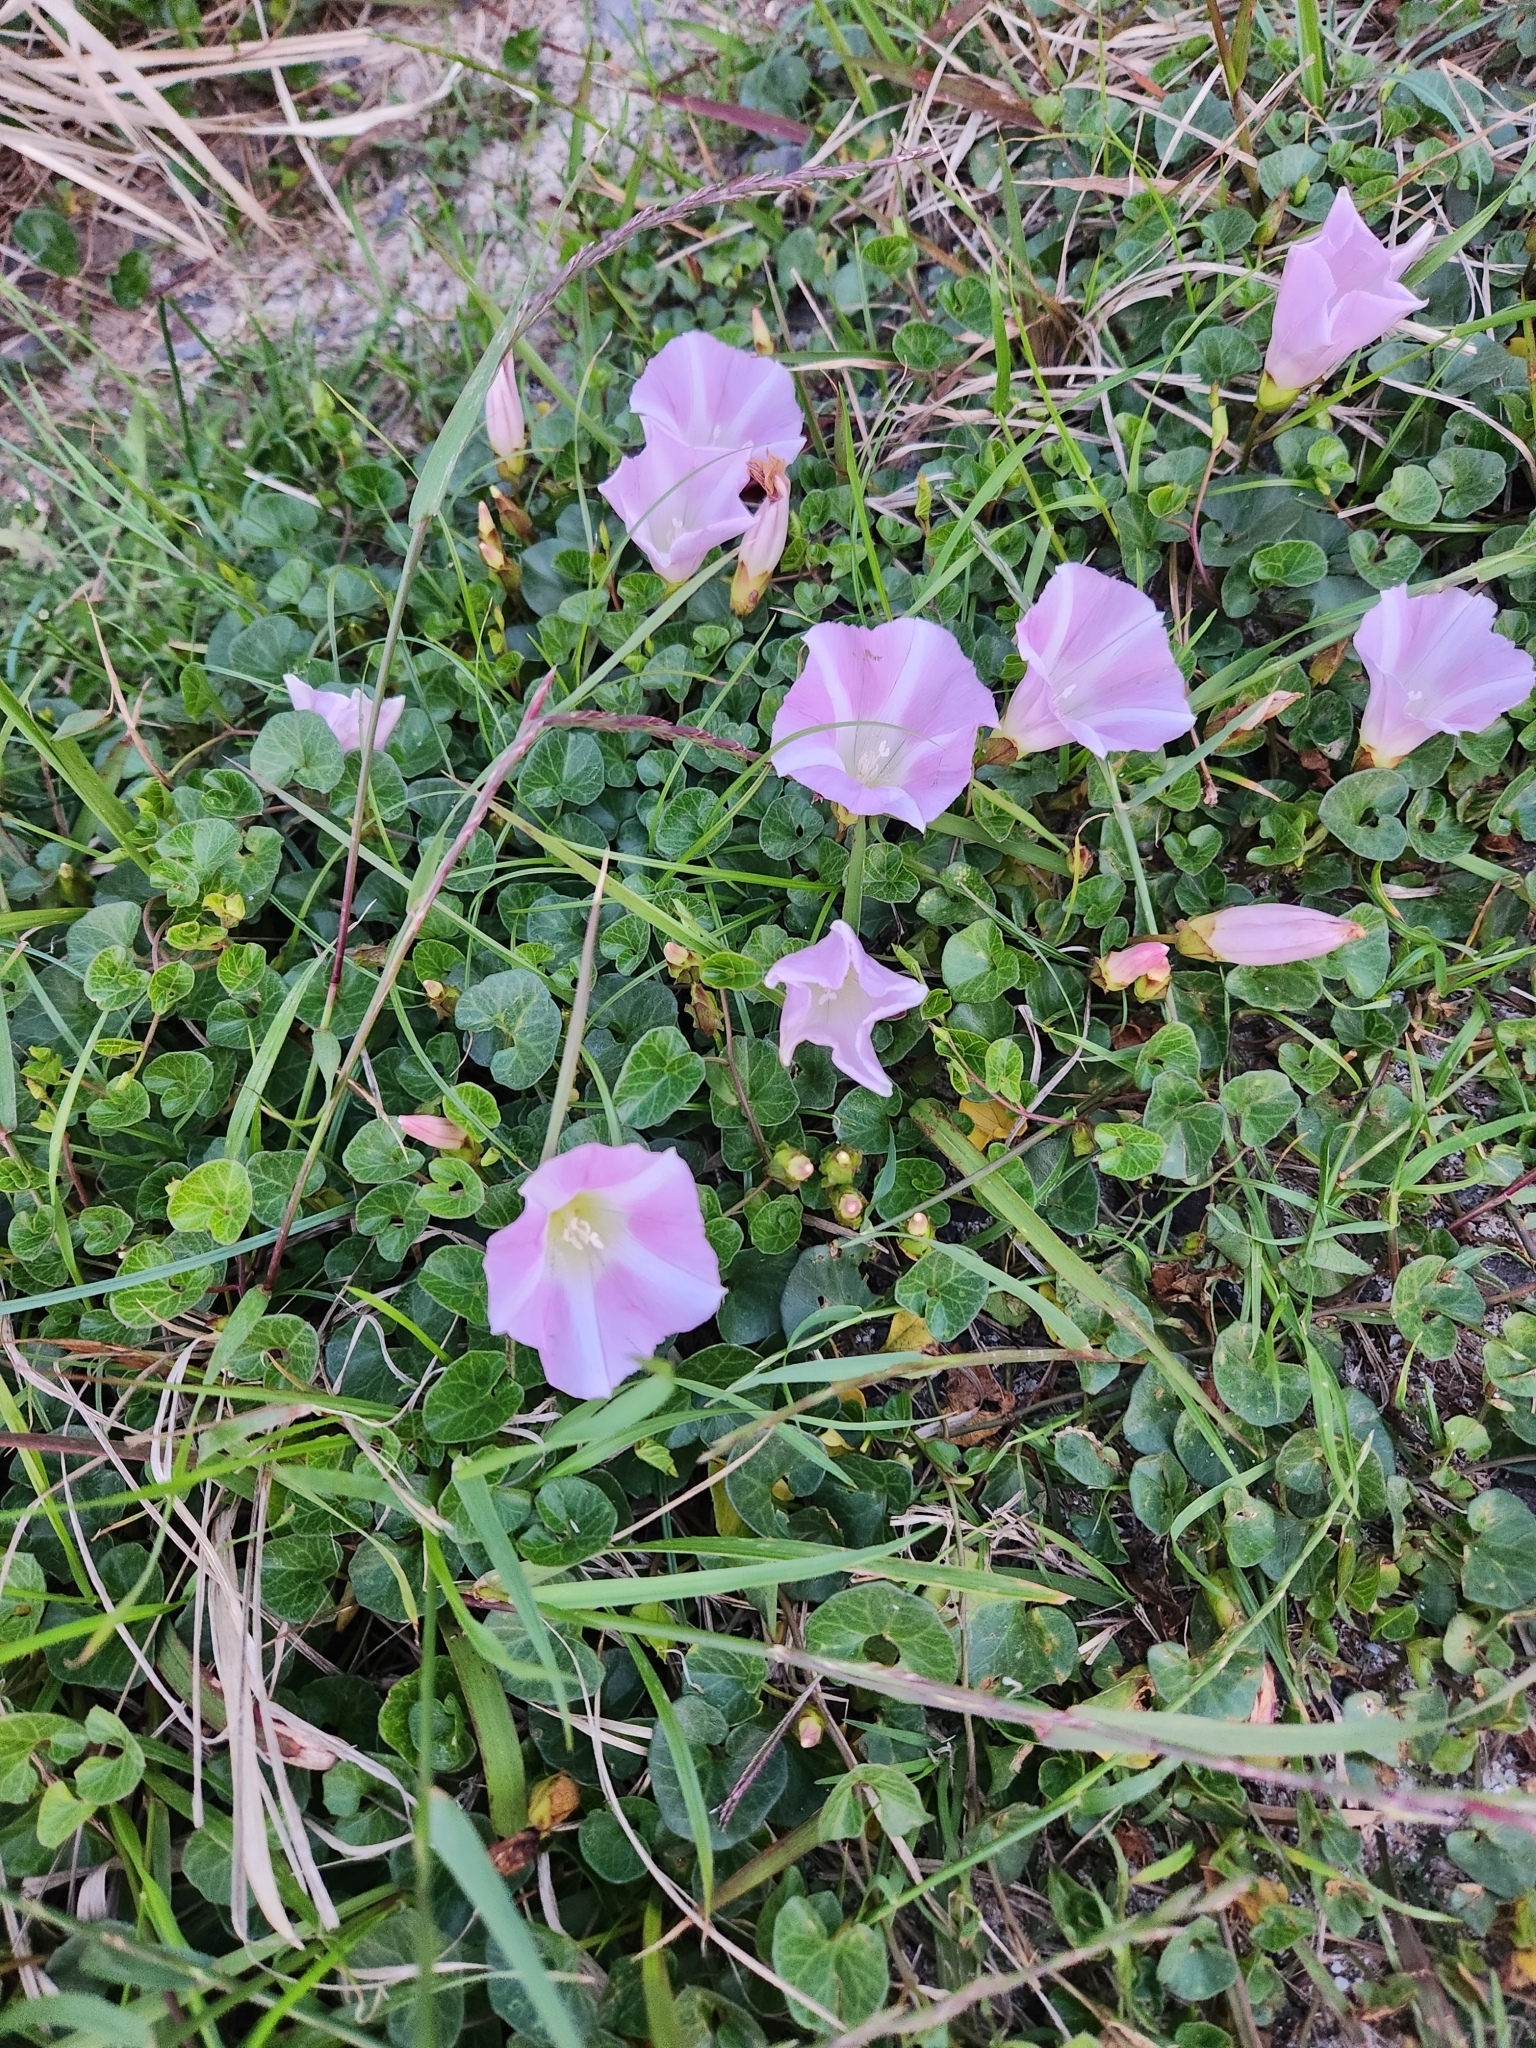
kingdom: Plantae
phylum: Tracheophyta
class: Magnoliopsida
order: Solanales
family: Convolvulaceae
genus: Calystegia
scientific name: Calystegia soldanella
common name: Sea bindweed
